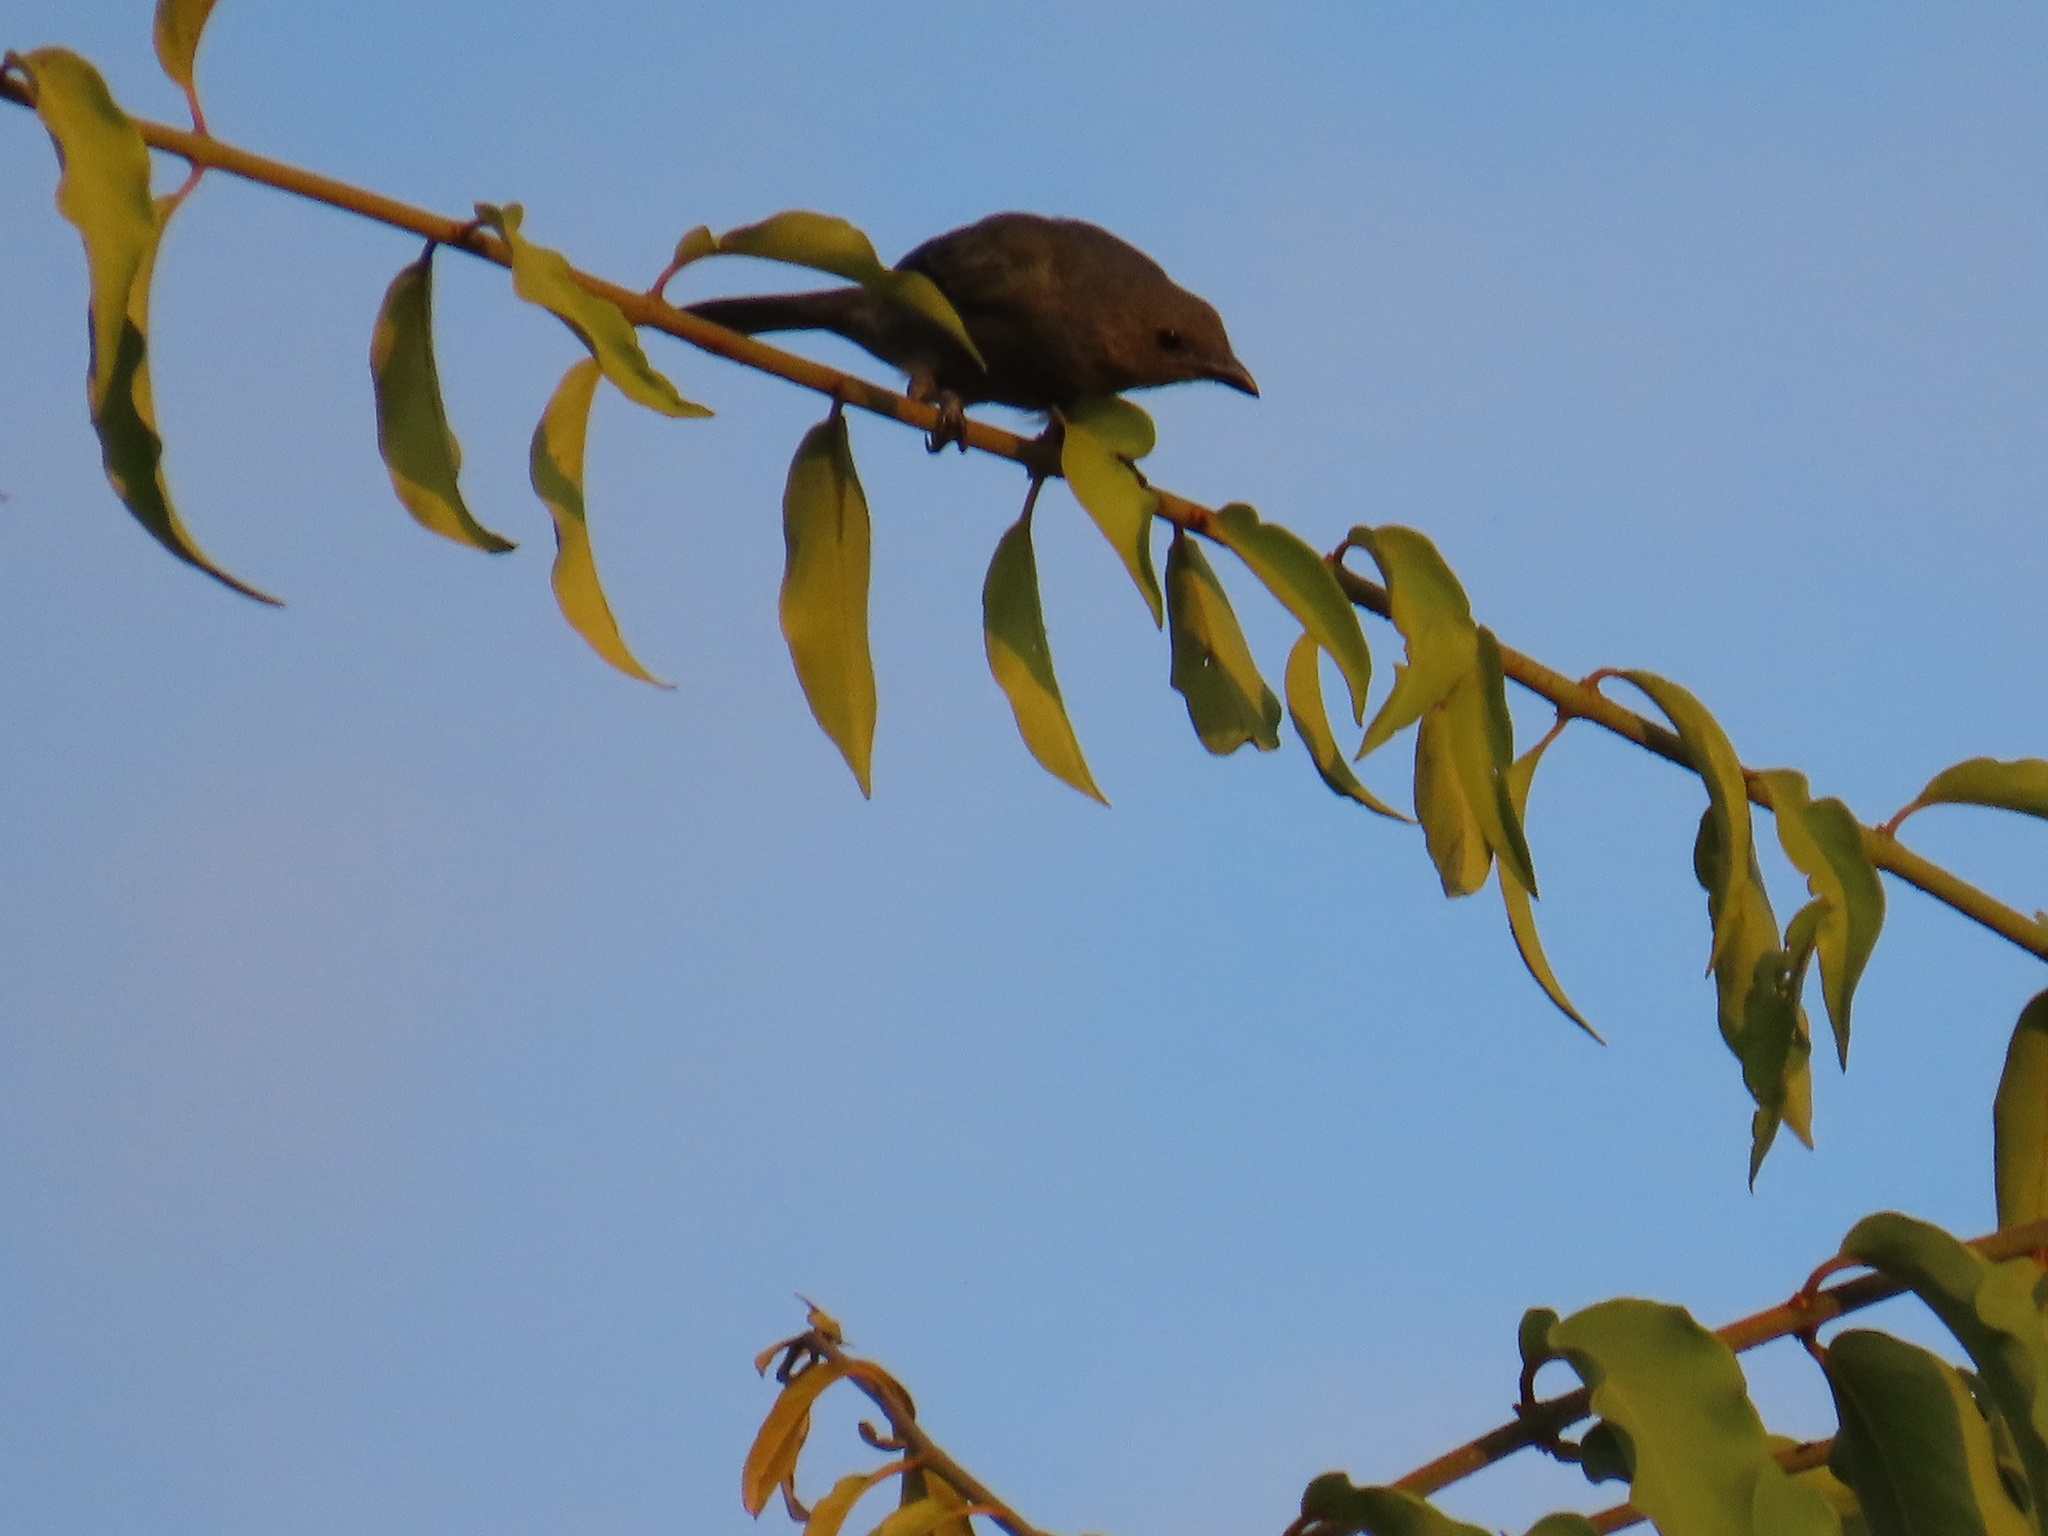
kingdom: Animalia
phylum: Chordata
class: Aves
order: Passeriformes
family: Thraupidae
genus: Thraupis
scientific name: Thraupis palmarum
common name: Palm tanager
